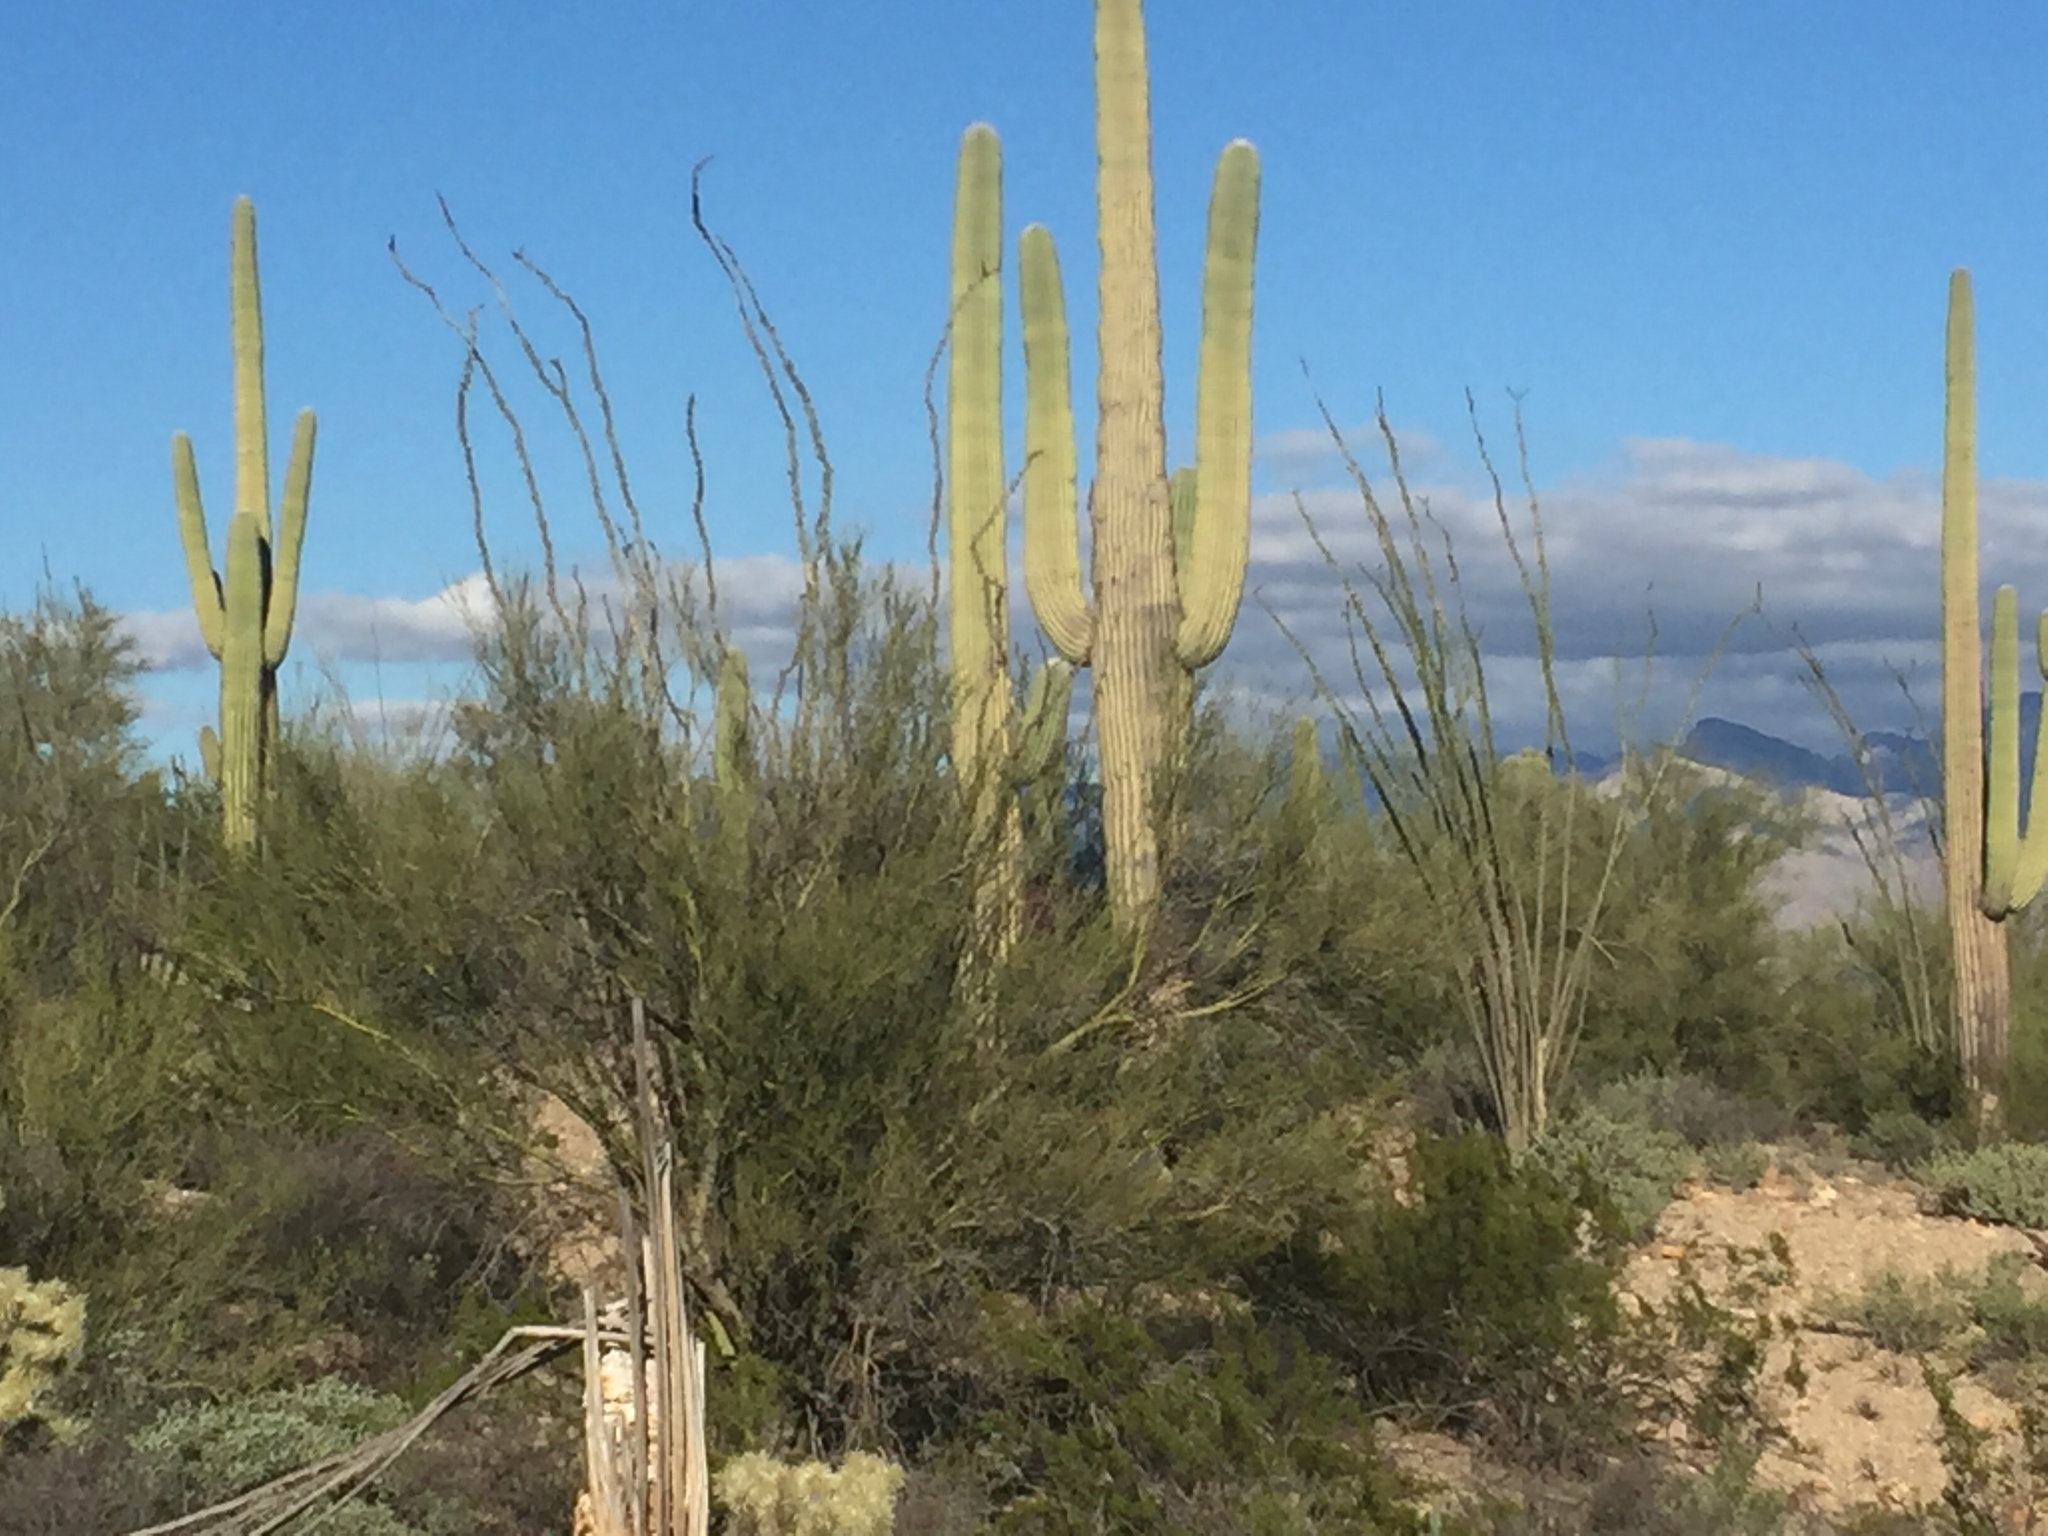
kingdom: Plantae
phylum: Tracheophyta
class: Magnoliopsida
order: Ericales
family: Fouquieriaceae
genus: Fouquieria
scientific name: Fouquieria splendens
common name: Vine-cactus
